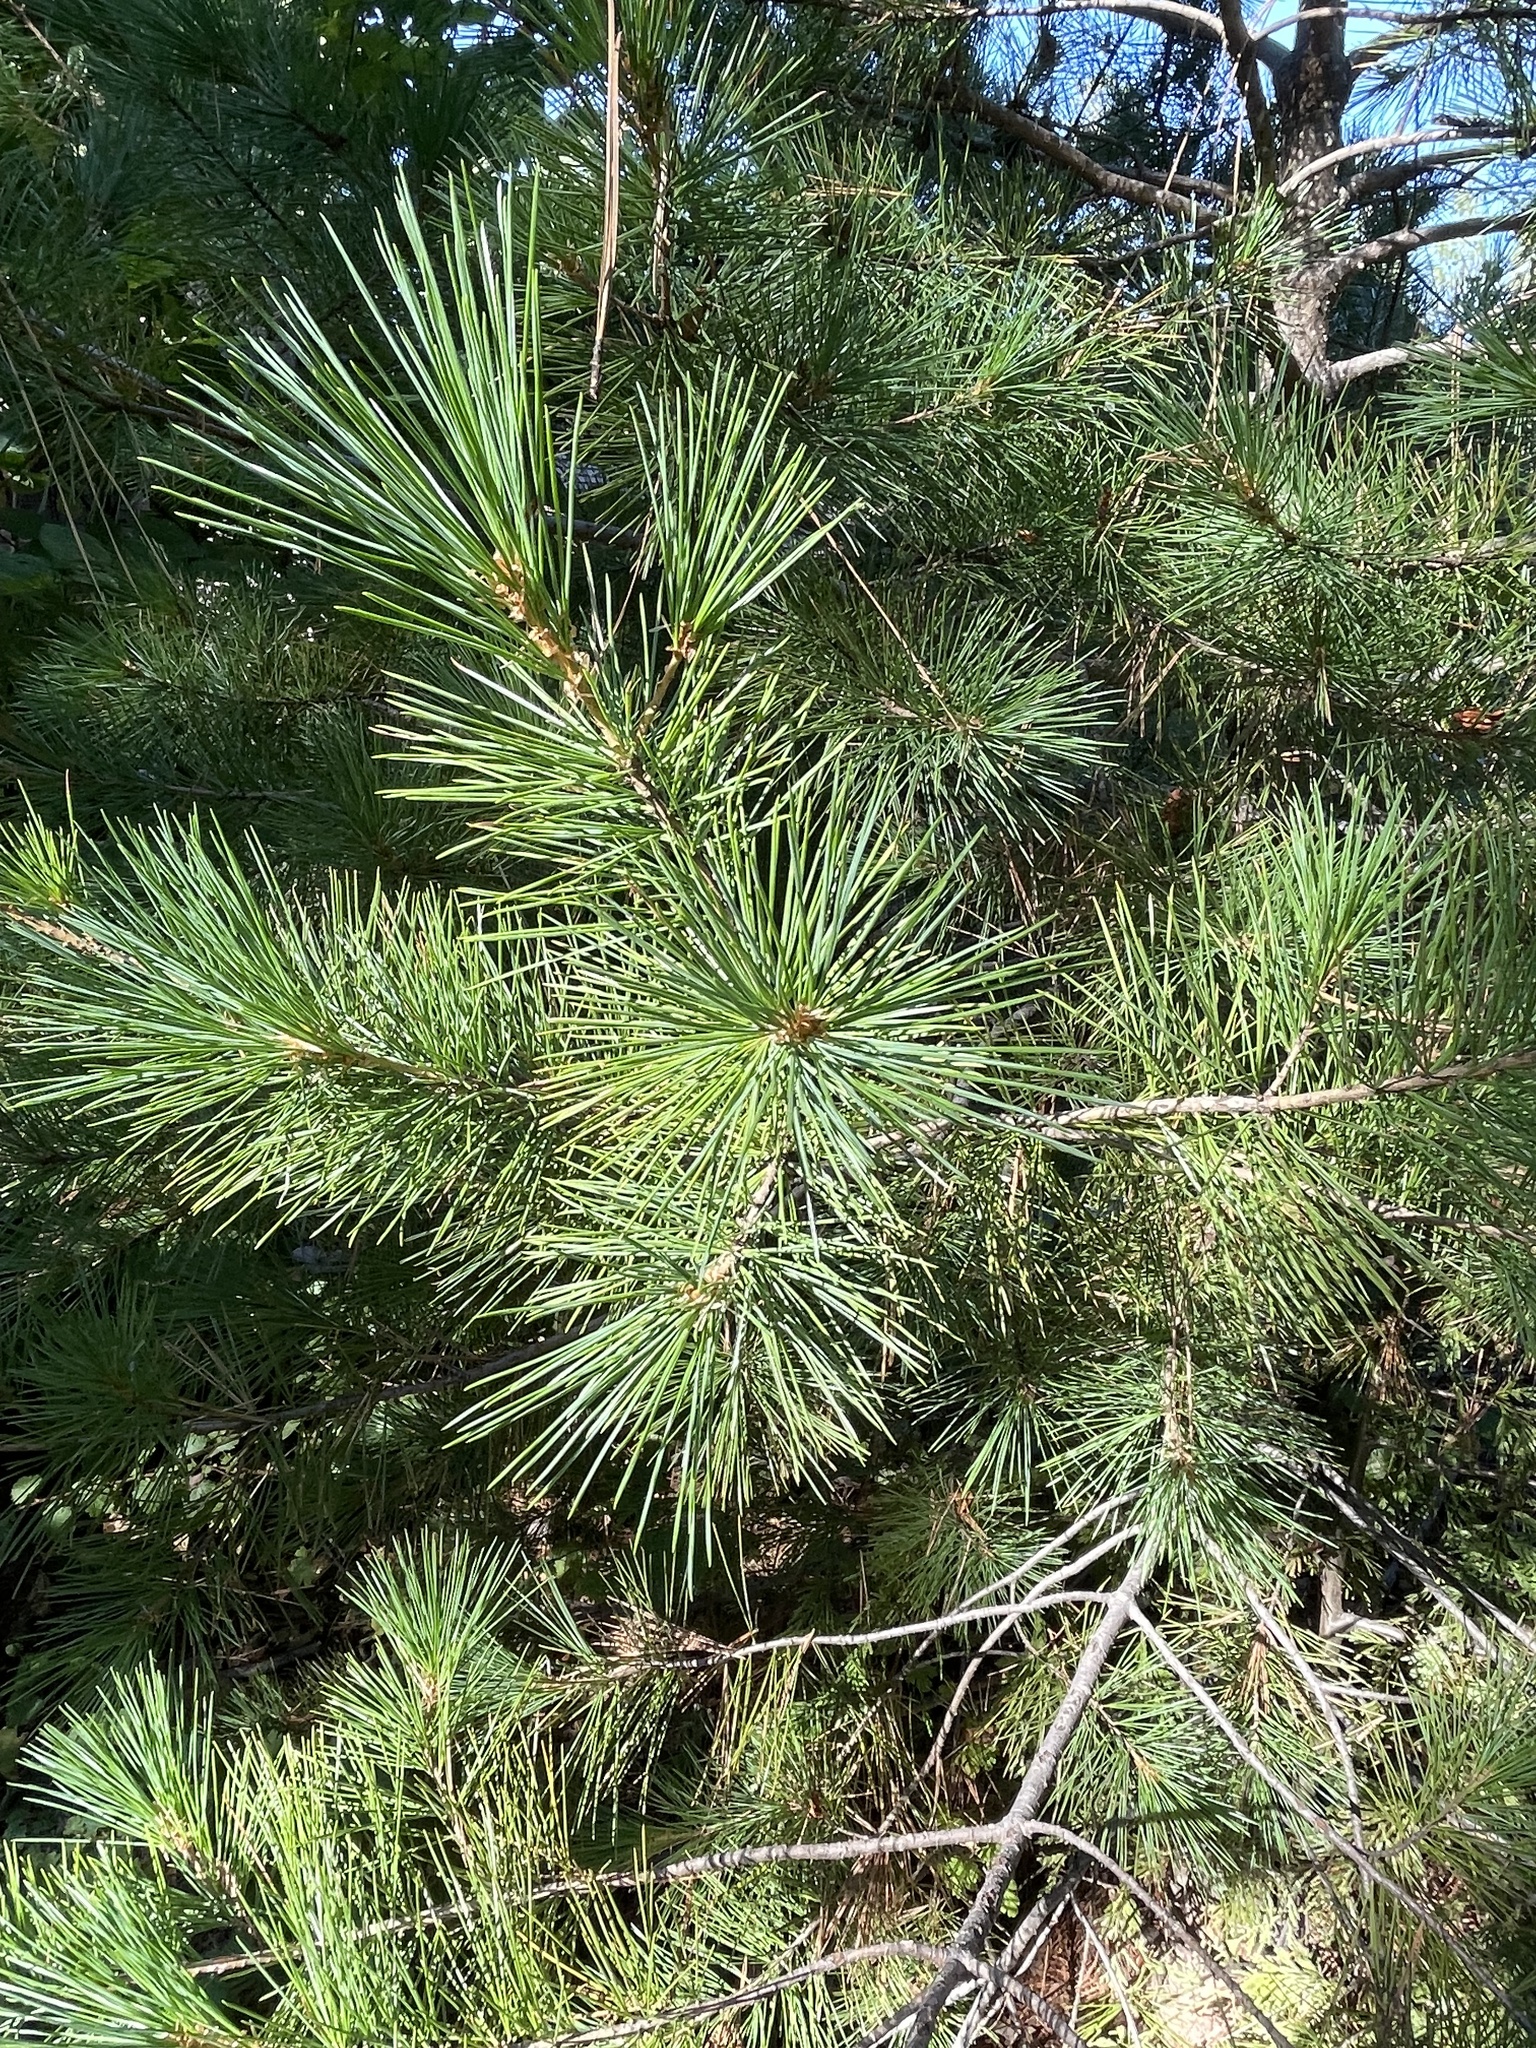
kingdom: Plantae
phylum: Tracheophyta
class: Pinopsida
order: Pinales
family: Pinaceae
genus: Pinus
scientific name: Pinus lambertiana
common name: Sugar pine
